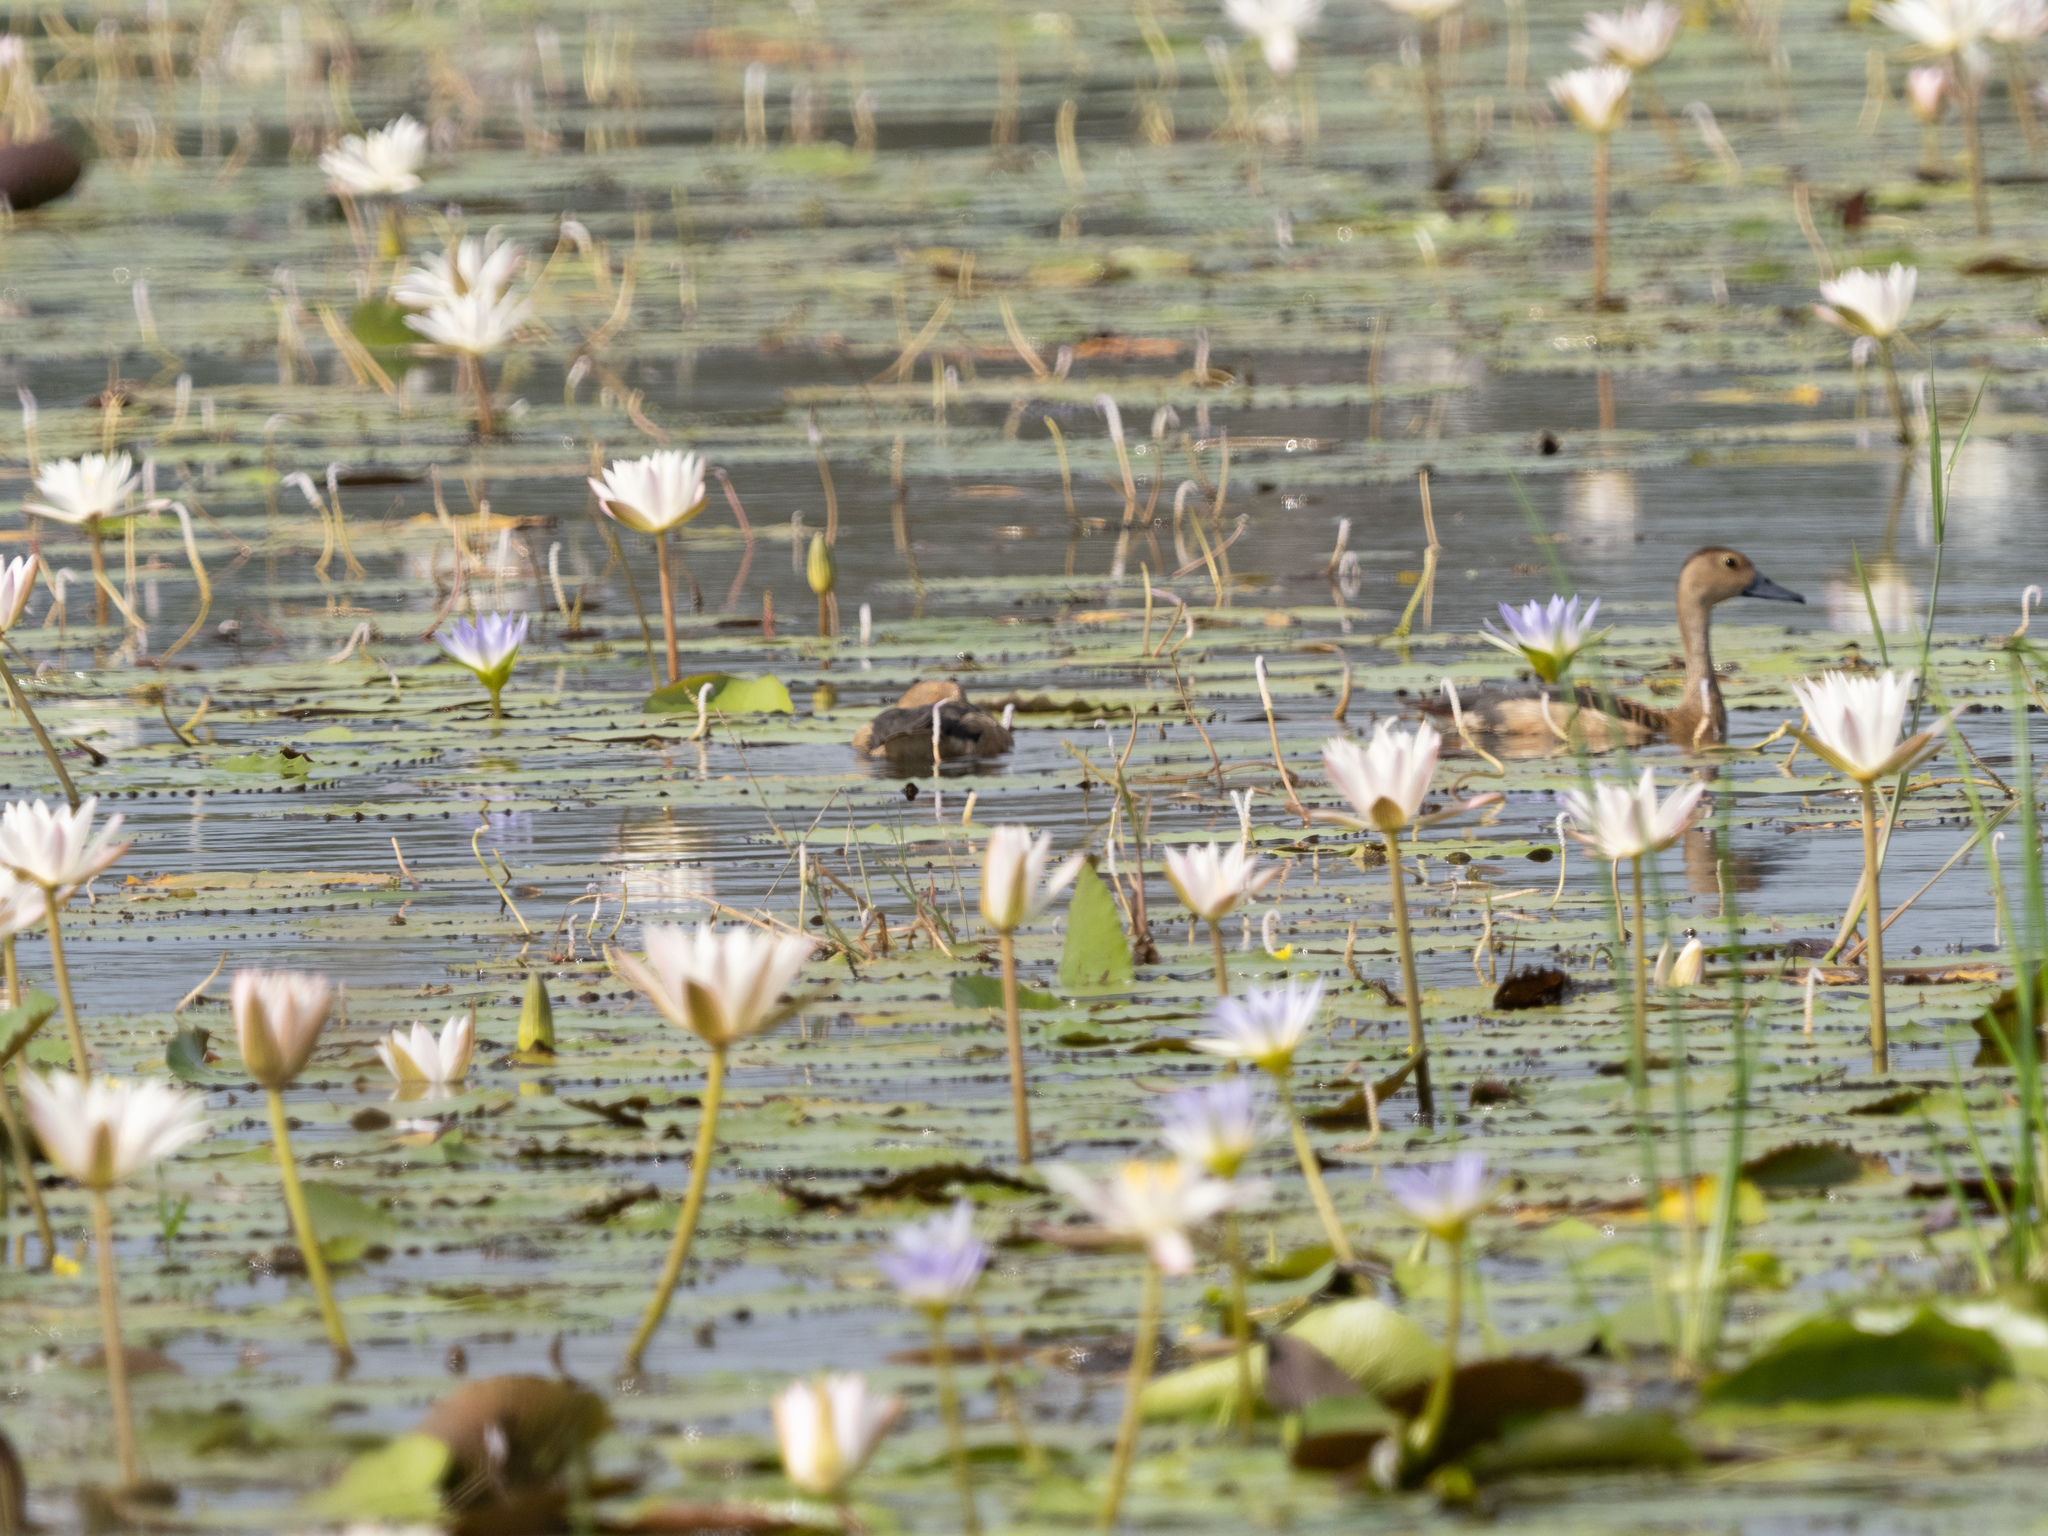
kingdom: Animalia
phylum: Chordata
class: Aves
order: Anseriformes
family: Anatidae
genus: Dendrocygna
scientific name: Dendrocygna javanica
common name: Lesser whistling-duck
